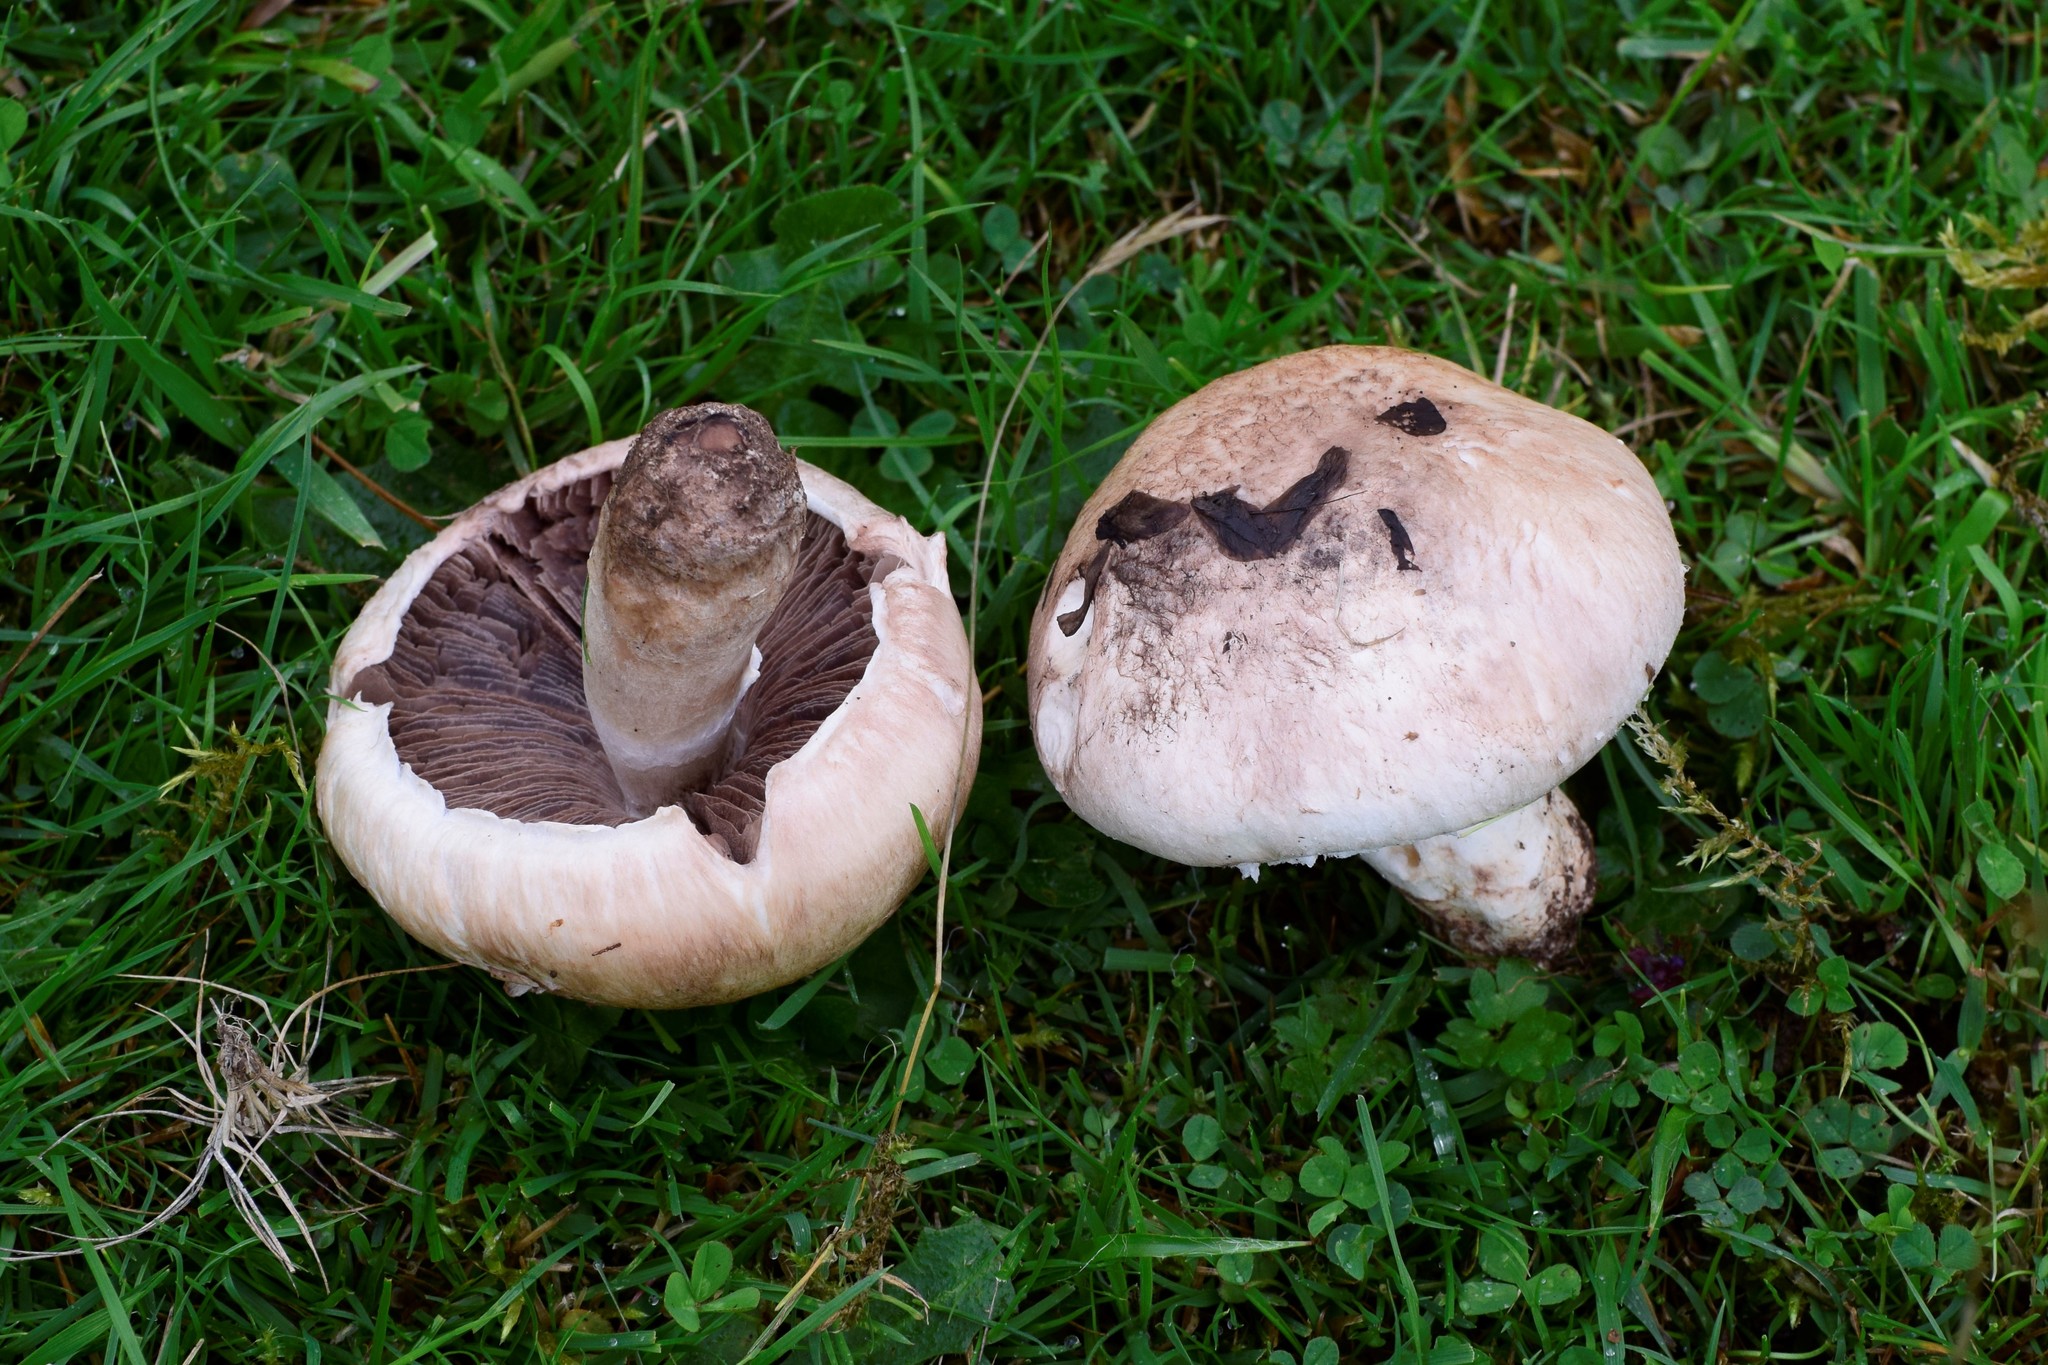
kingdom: Fungi
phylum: Basidiomycota
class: Agaricomycetes
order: Agaricales
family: Agaricaceae
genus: Agaricus
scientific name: Agaricus campestris
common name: Field mushroom
